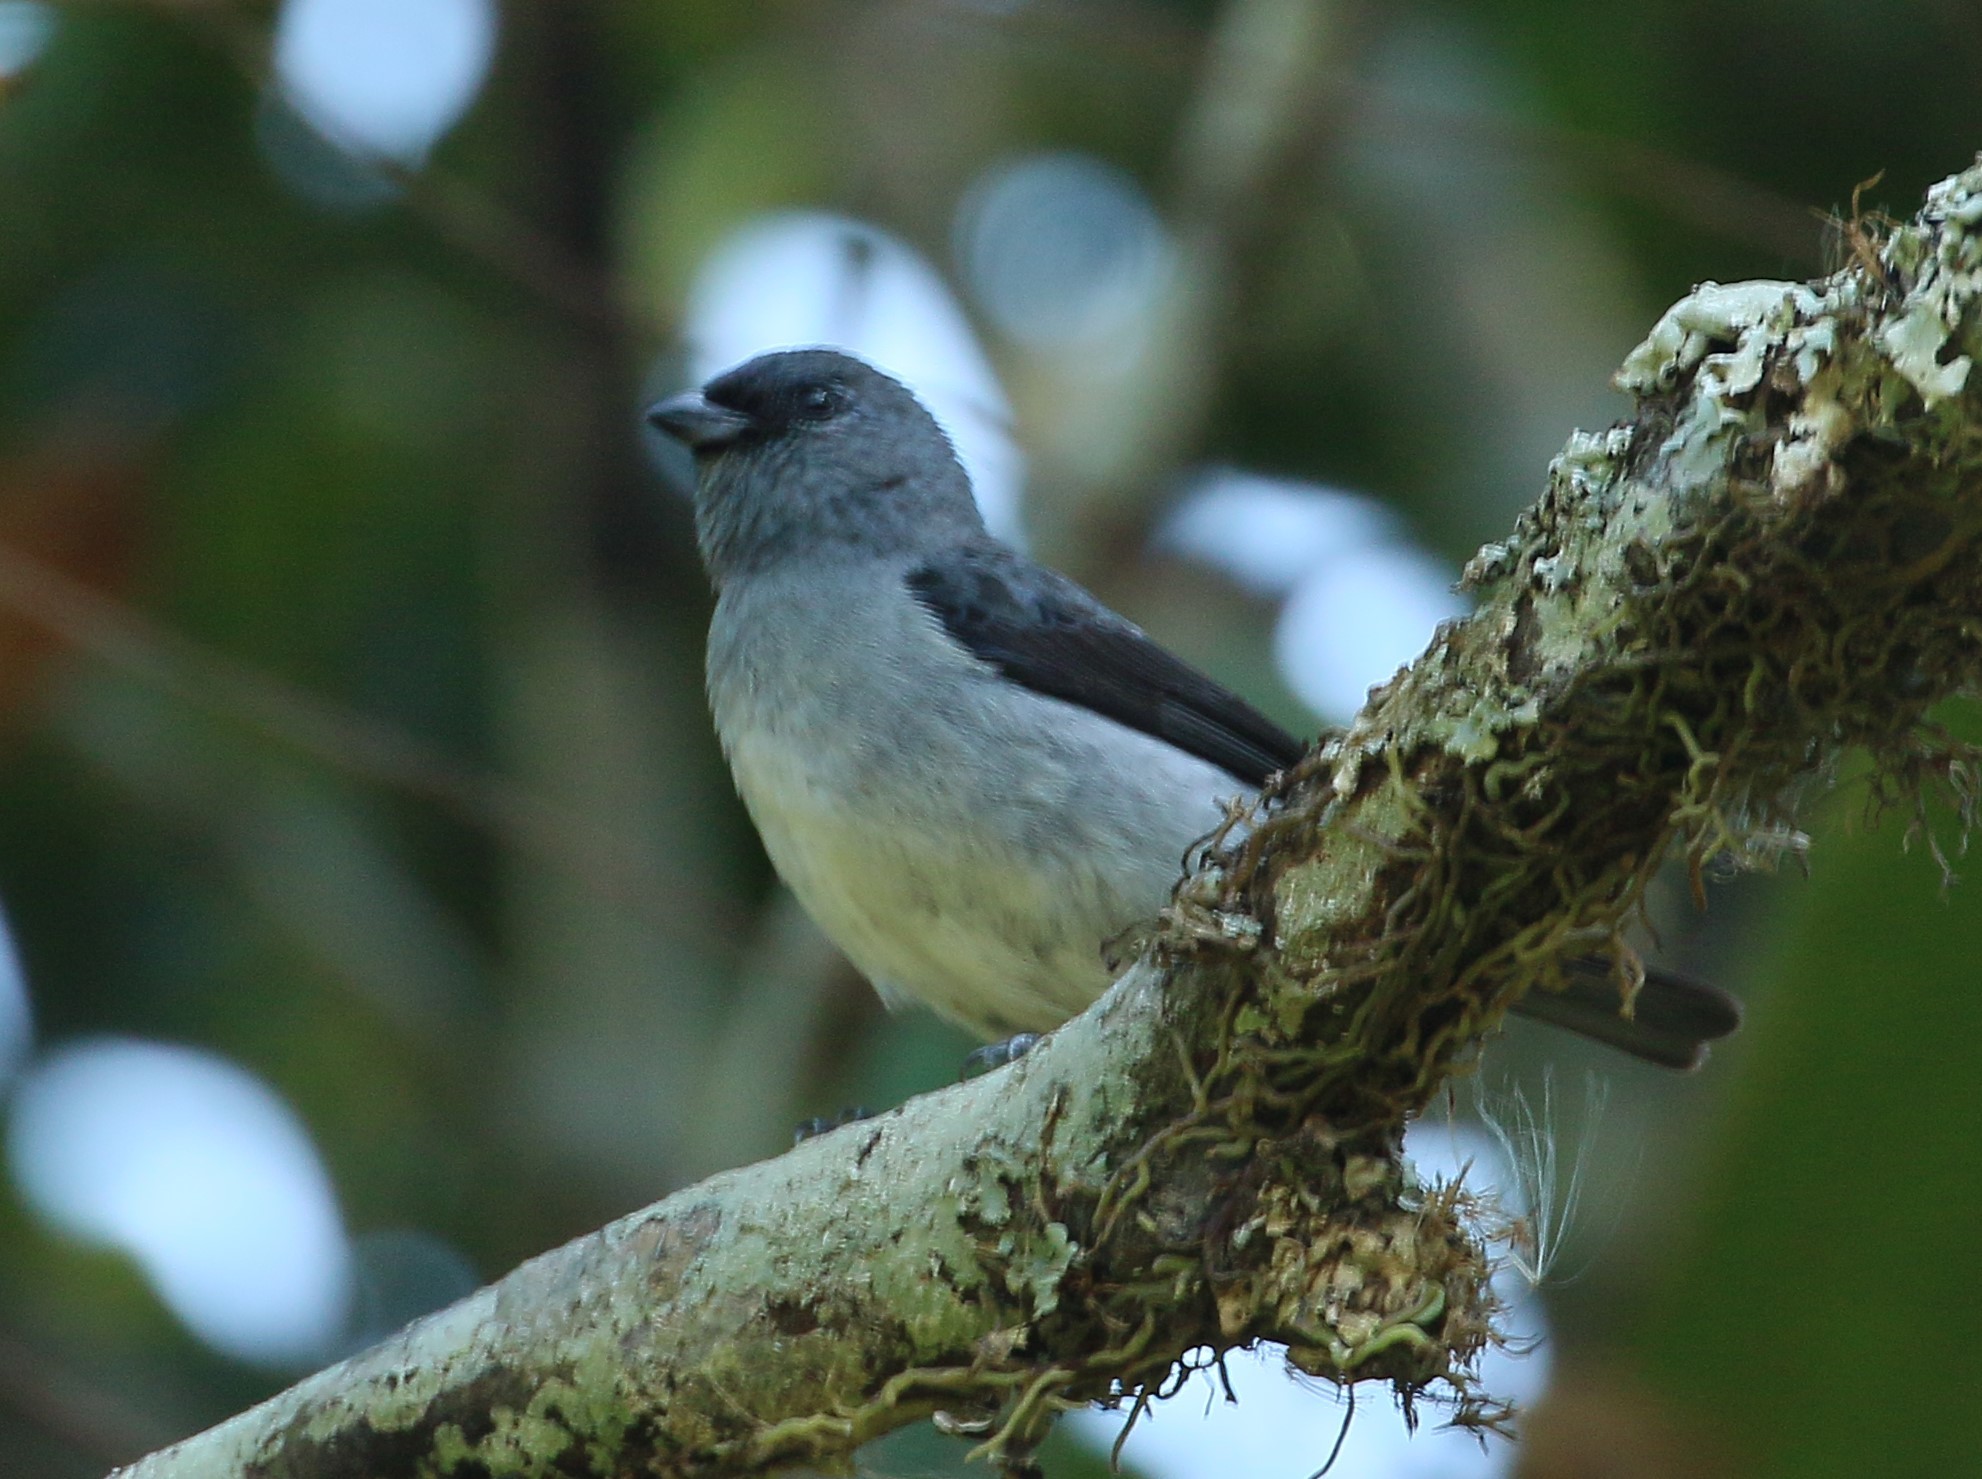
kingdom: Animalia
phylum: Chordata
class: Aves
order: Passeriformes
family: Thraupidae
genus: Tangara
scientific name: Tangara inornata
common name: Plain-colored tanager
